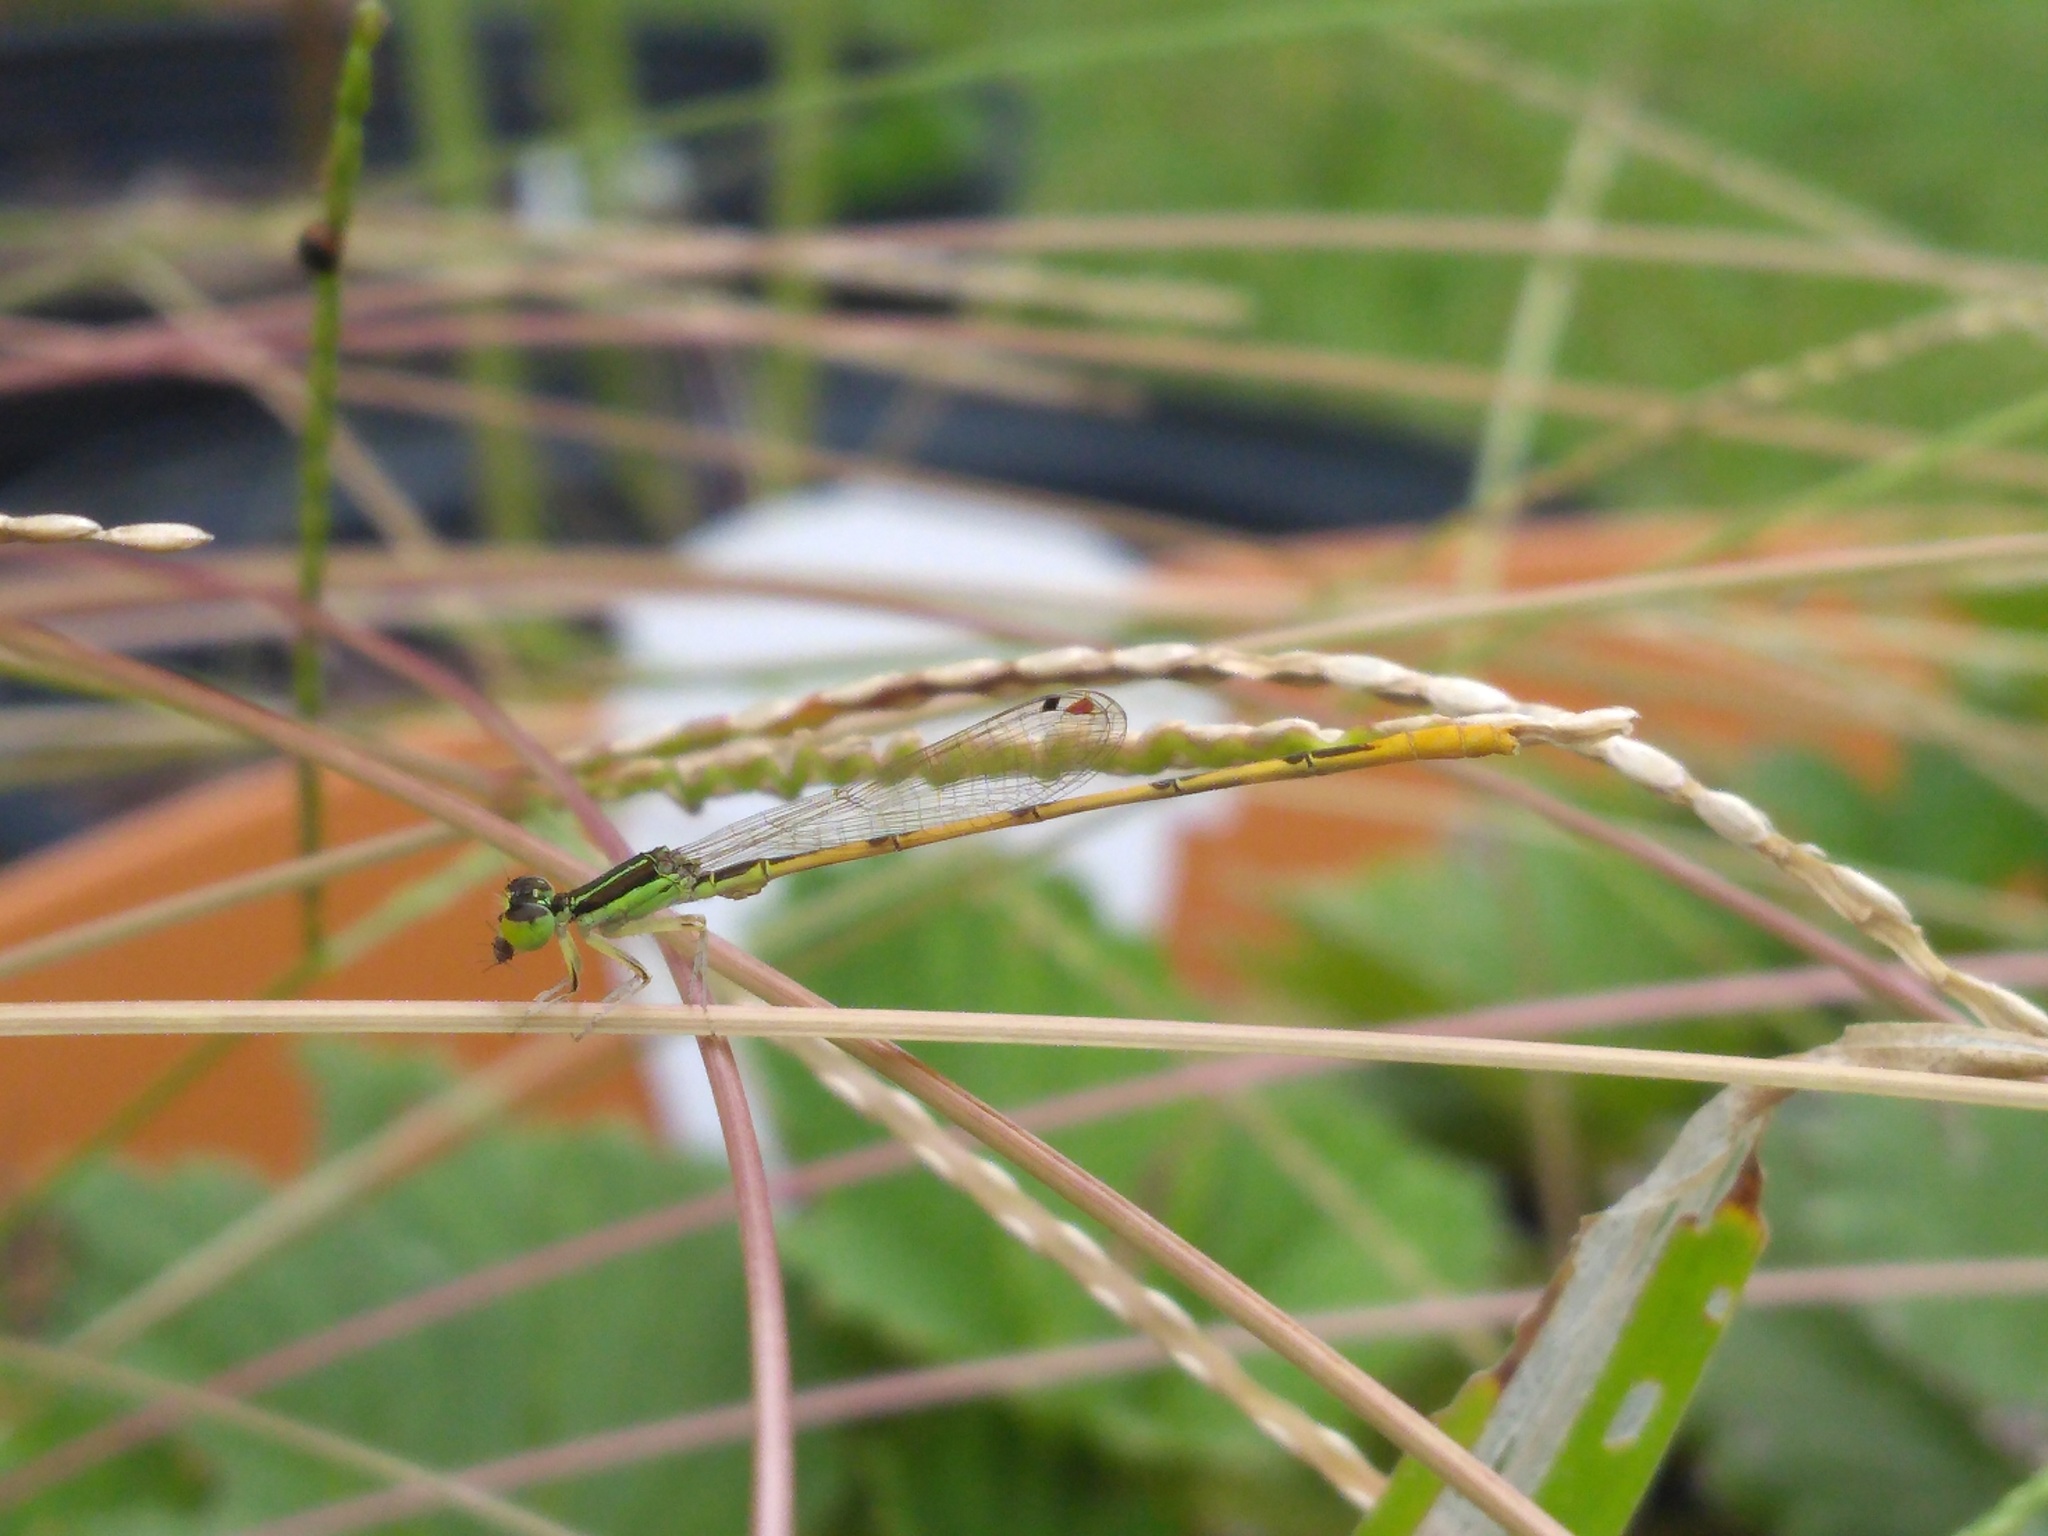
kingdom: Animalia
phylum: Arthropoda
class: Insecta
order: Odonata
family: Coenagrionidae
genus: Ischnura
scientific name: Ischnura hastata
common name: Citrine forktail
